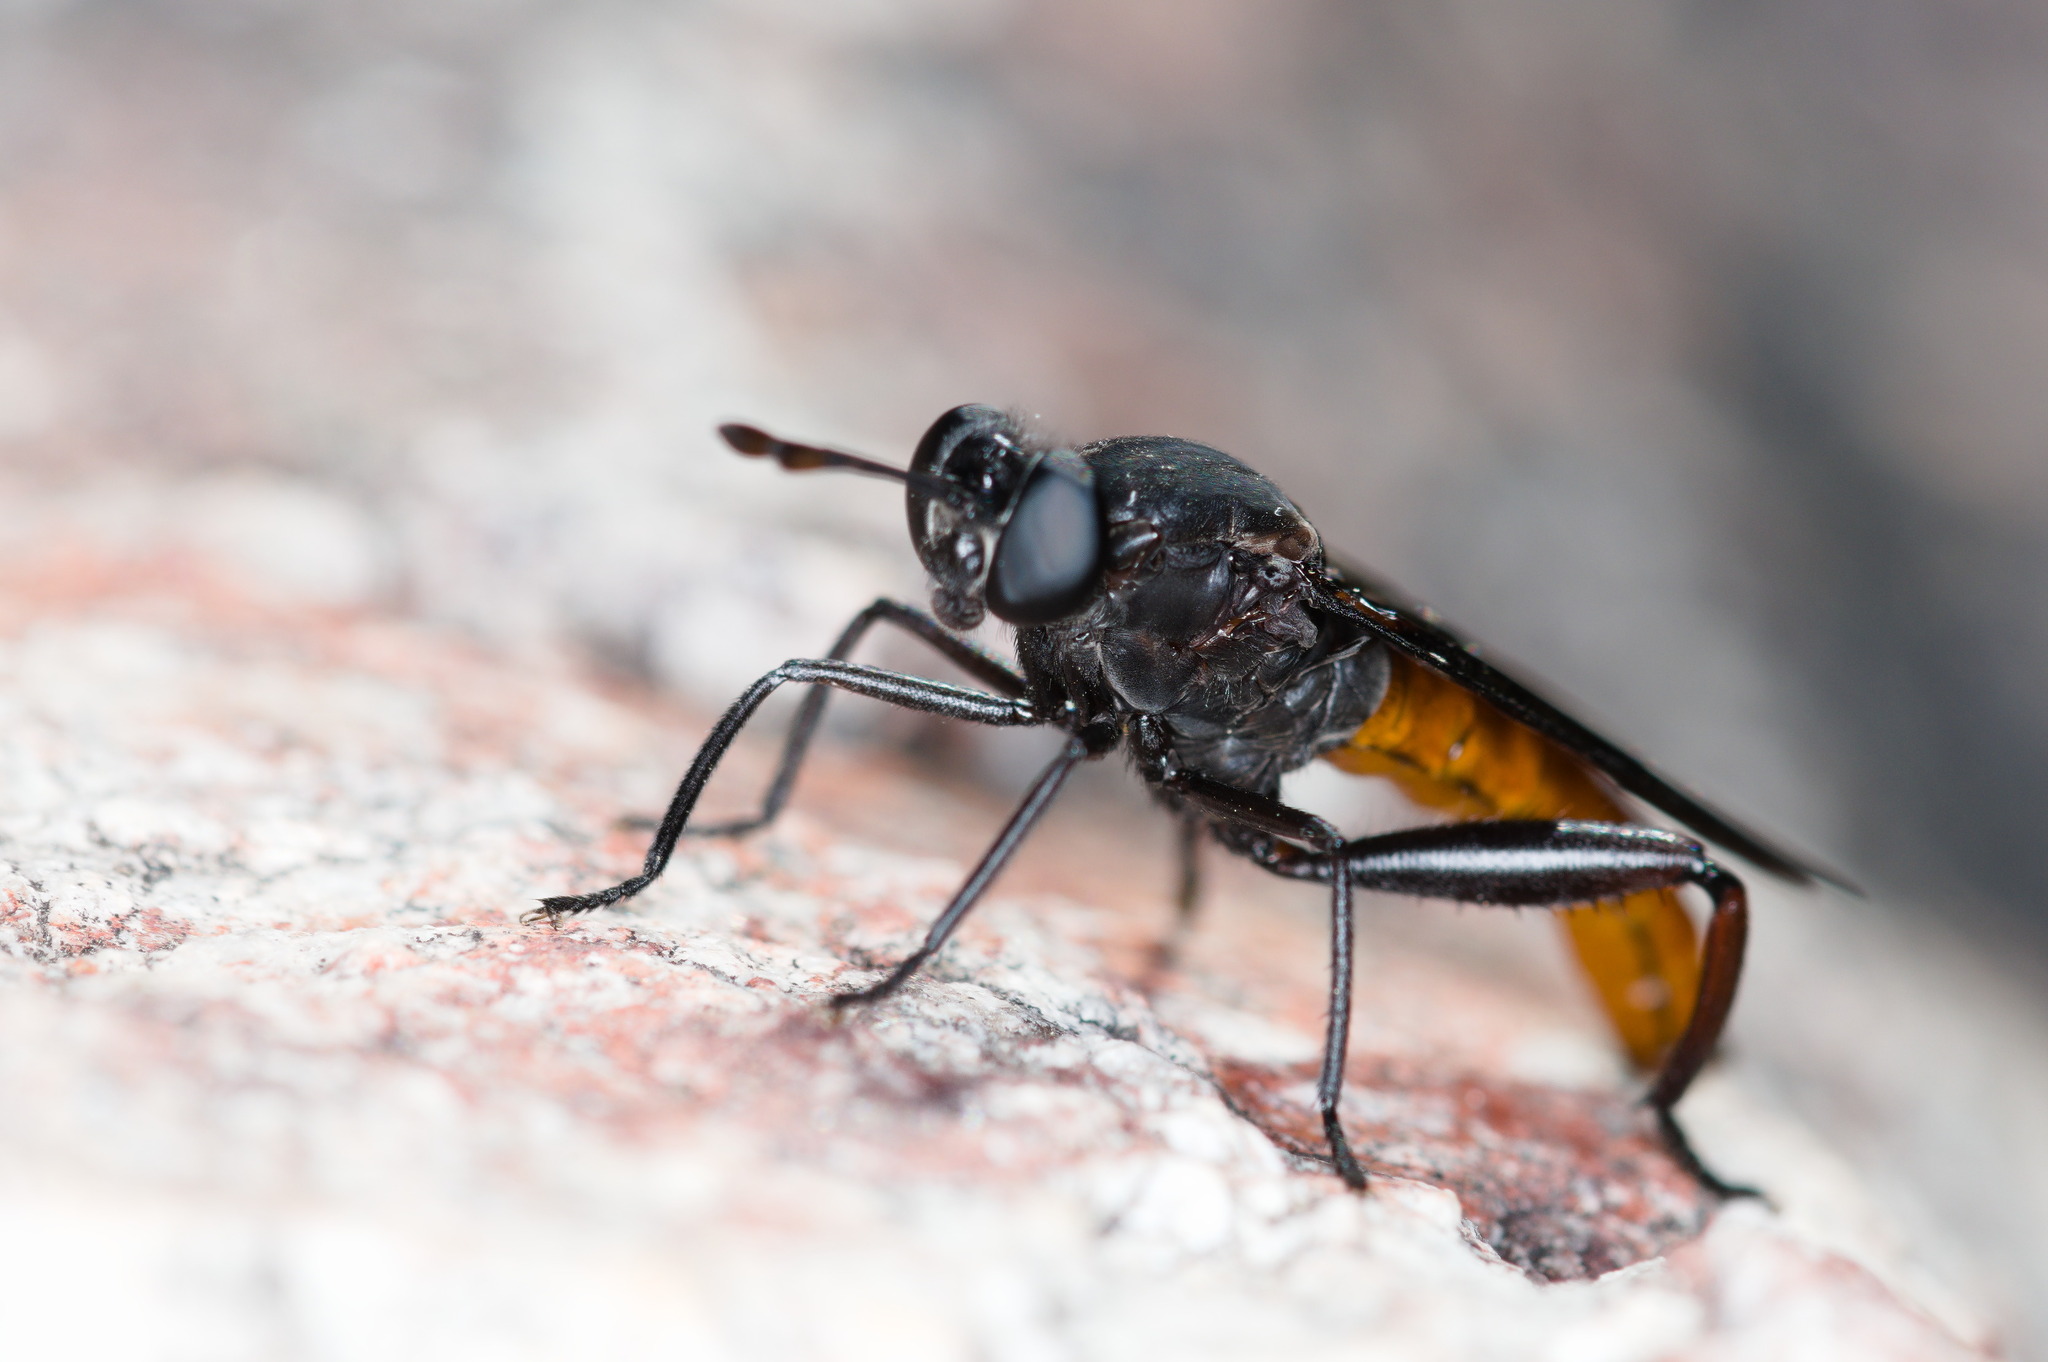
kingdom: Animalia
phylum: Arthropoda
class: Insecta
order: Diptera
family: Mydidae
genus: Messiasia
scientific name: Messiasia pertenuis
